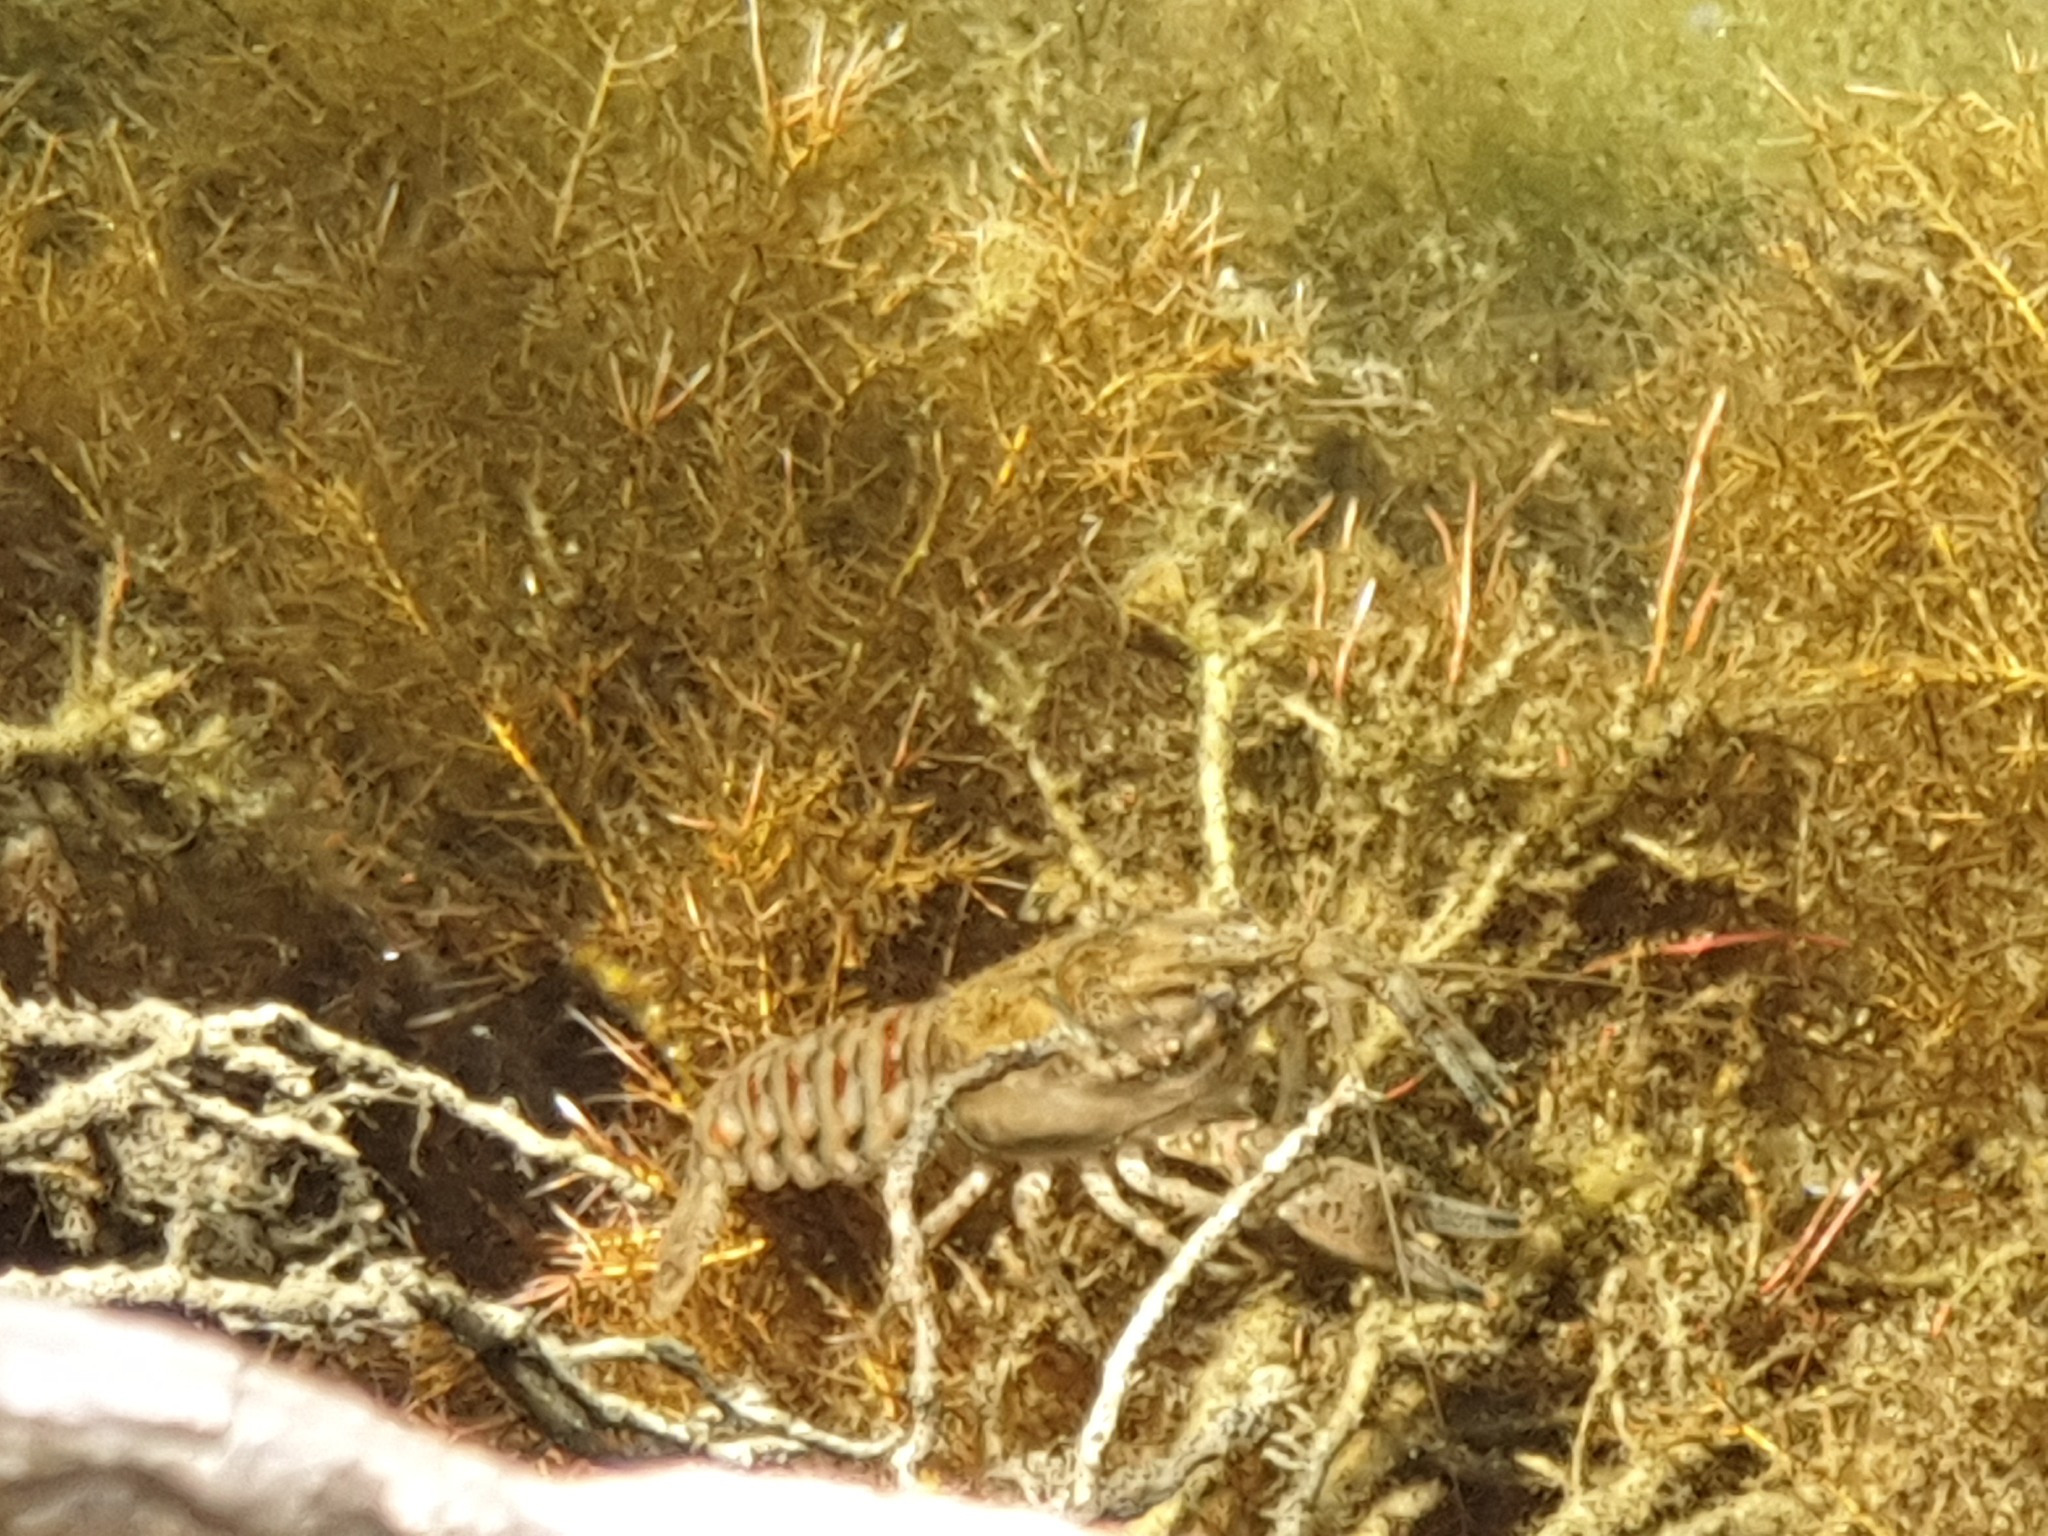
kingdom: Animalia
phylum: Arthropoda
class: Malacostraca
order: Decapoda
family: Cambaridae
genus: Faxonius
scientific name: Faxonius limosus
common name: American crayfish
